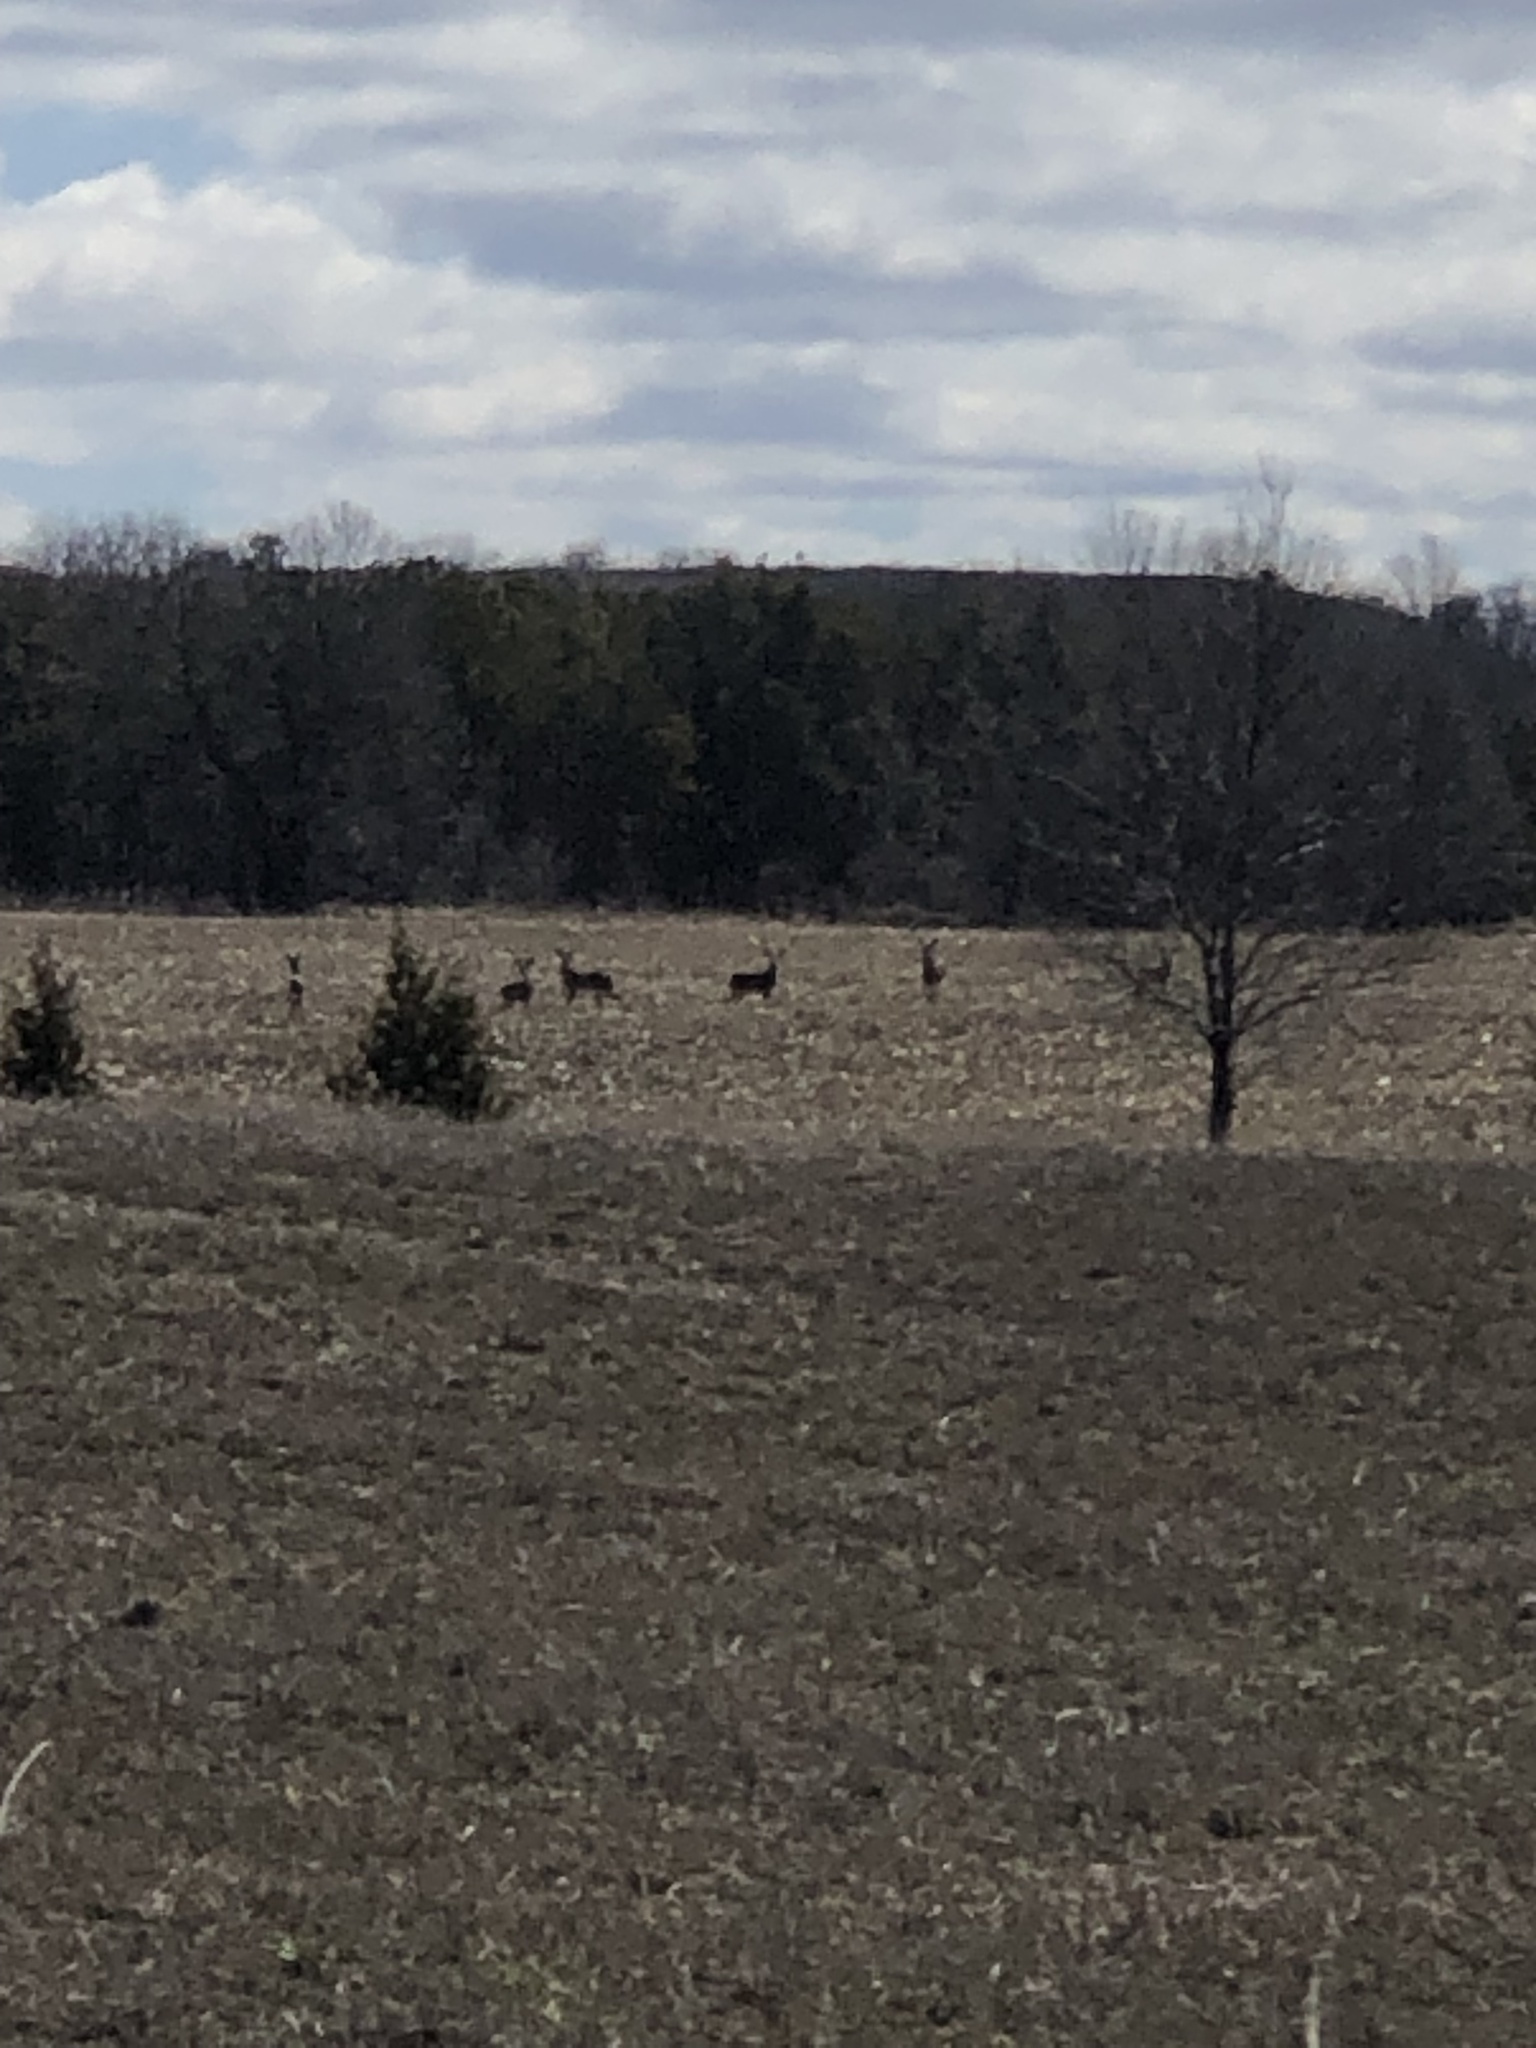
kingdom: Animalia
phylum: Chordata
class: Mammalia
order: Artiodactyla
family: Cervidae
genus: Odocoileus
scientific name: Odocoileus virginianus
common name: White-tailed deer
